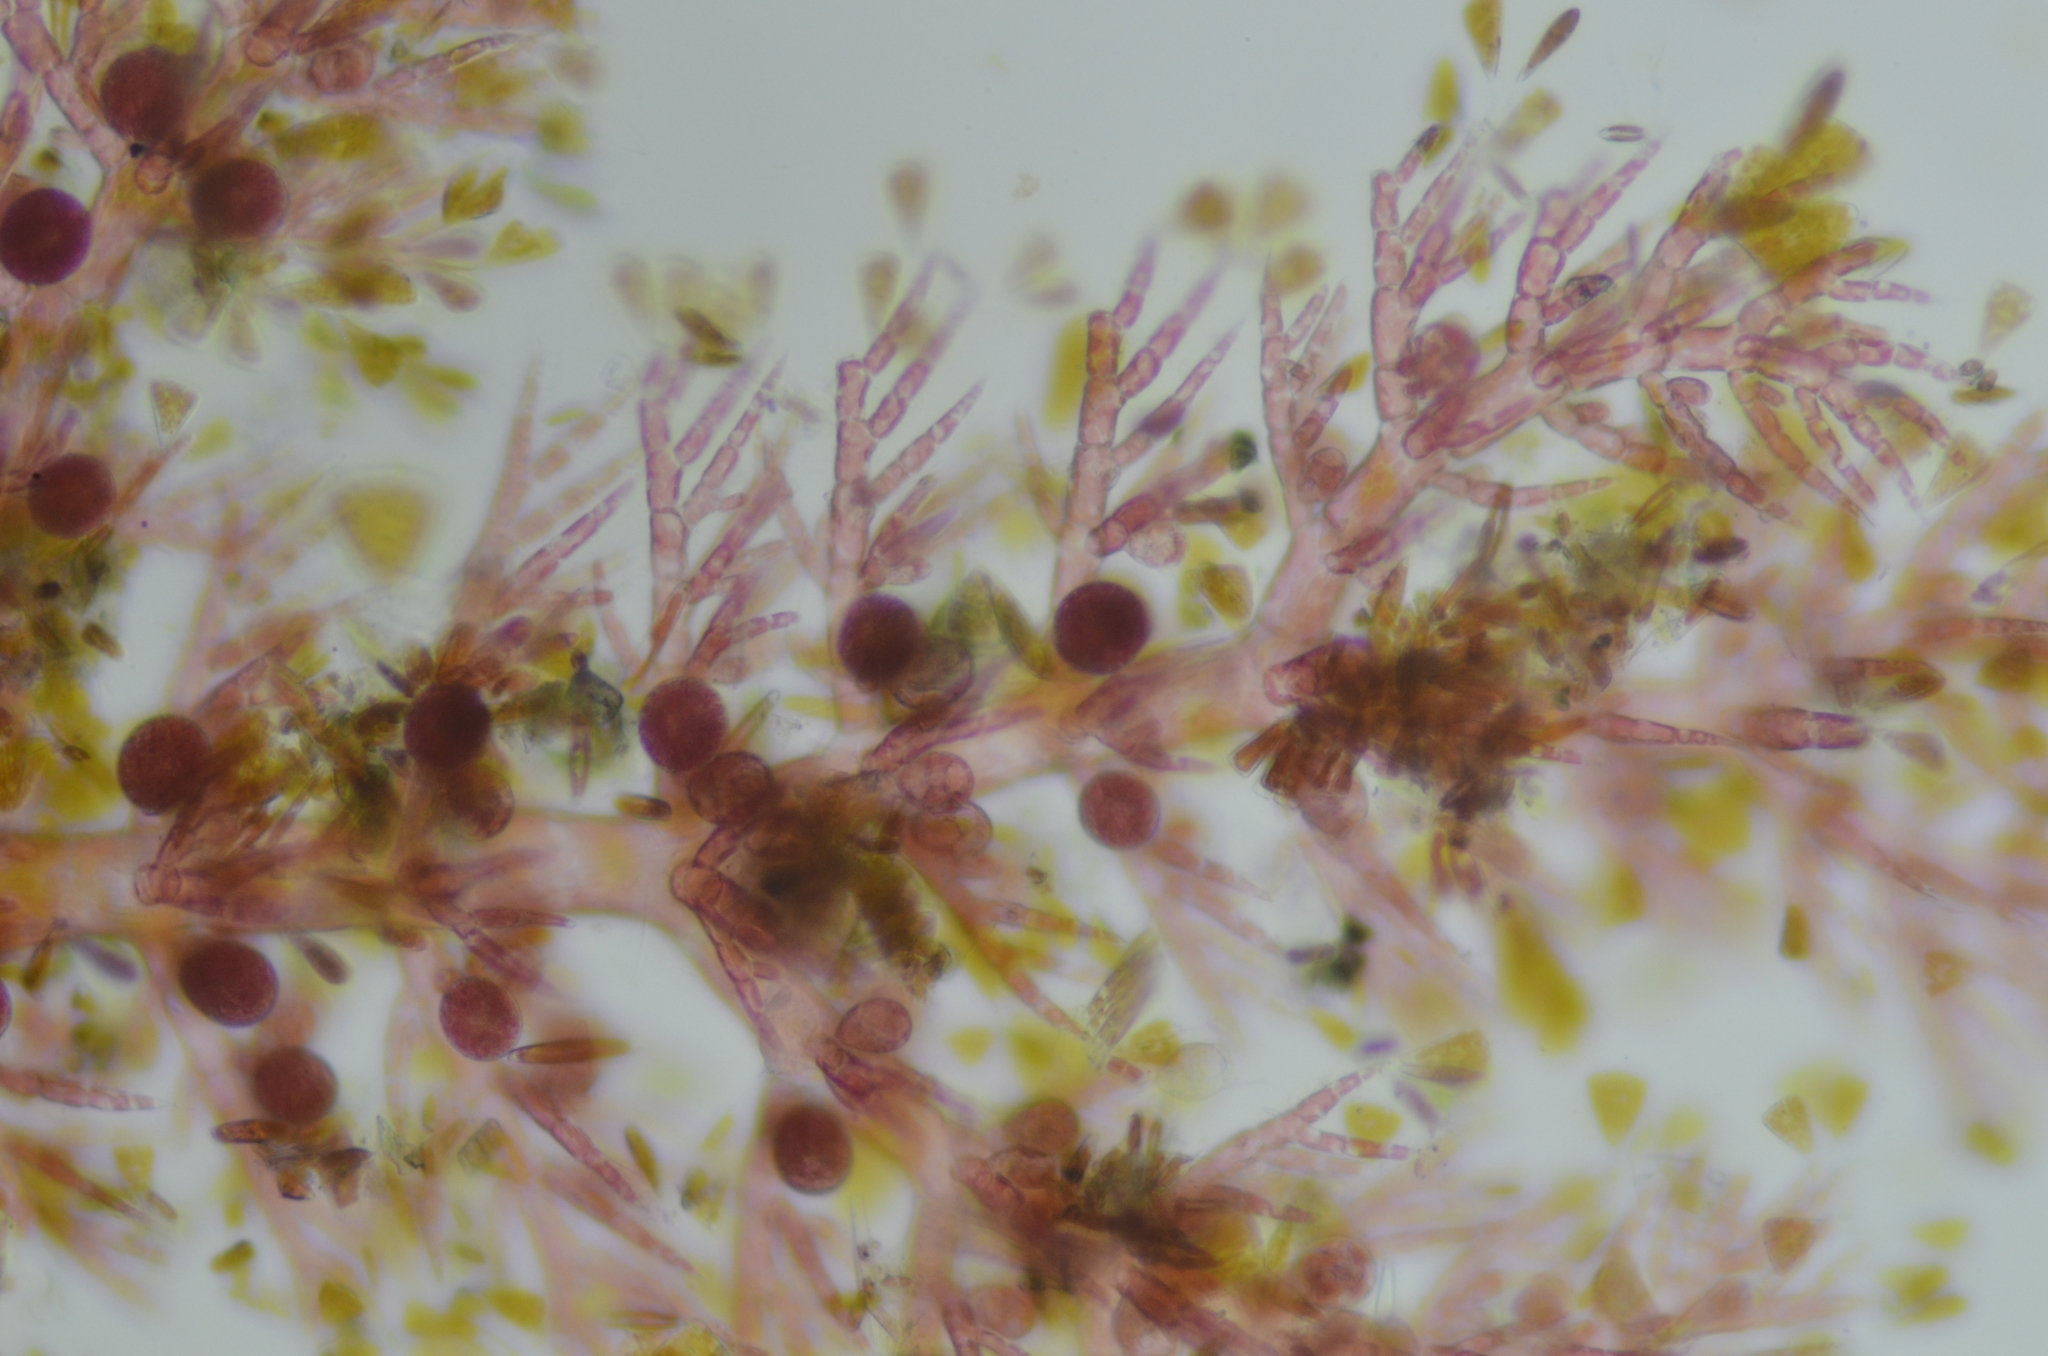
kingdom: Plantae
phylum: Rhodophyta
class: Florideophyceae
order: Ceramiales
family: Ceramiaceae
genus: Pterothamnion
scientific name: Pterothamnion pectinatum
